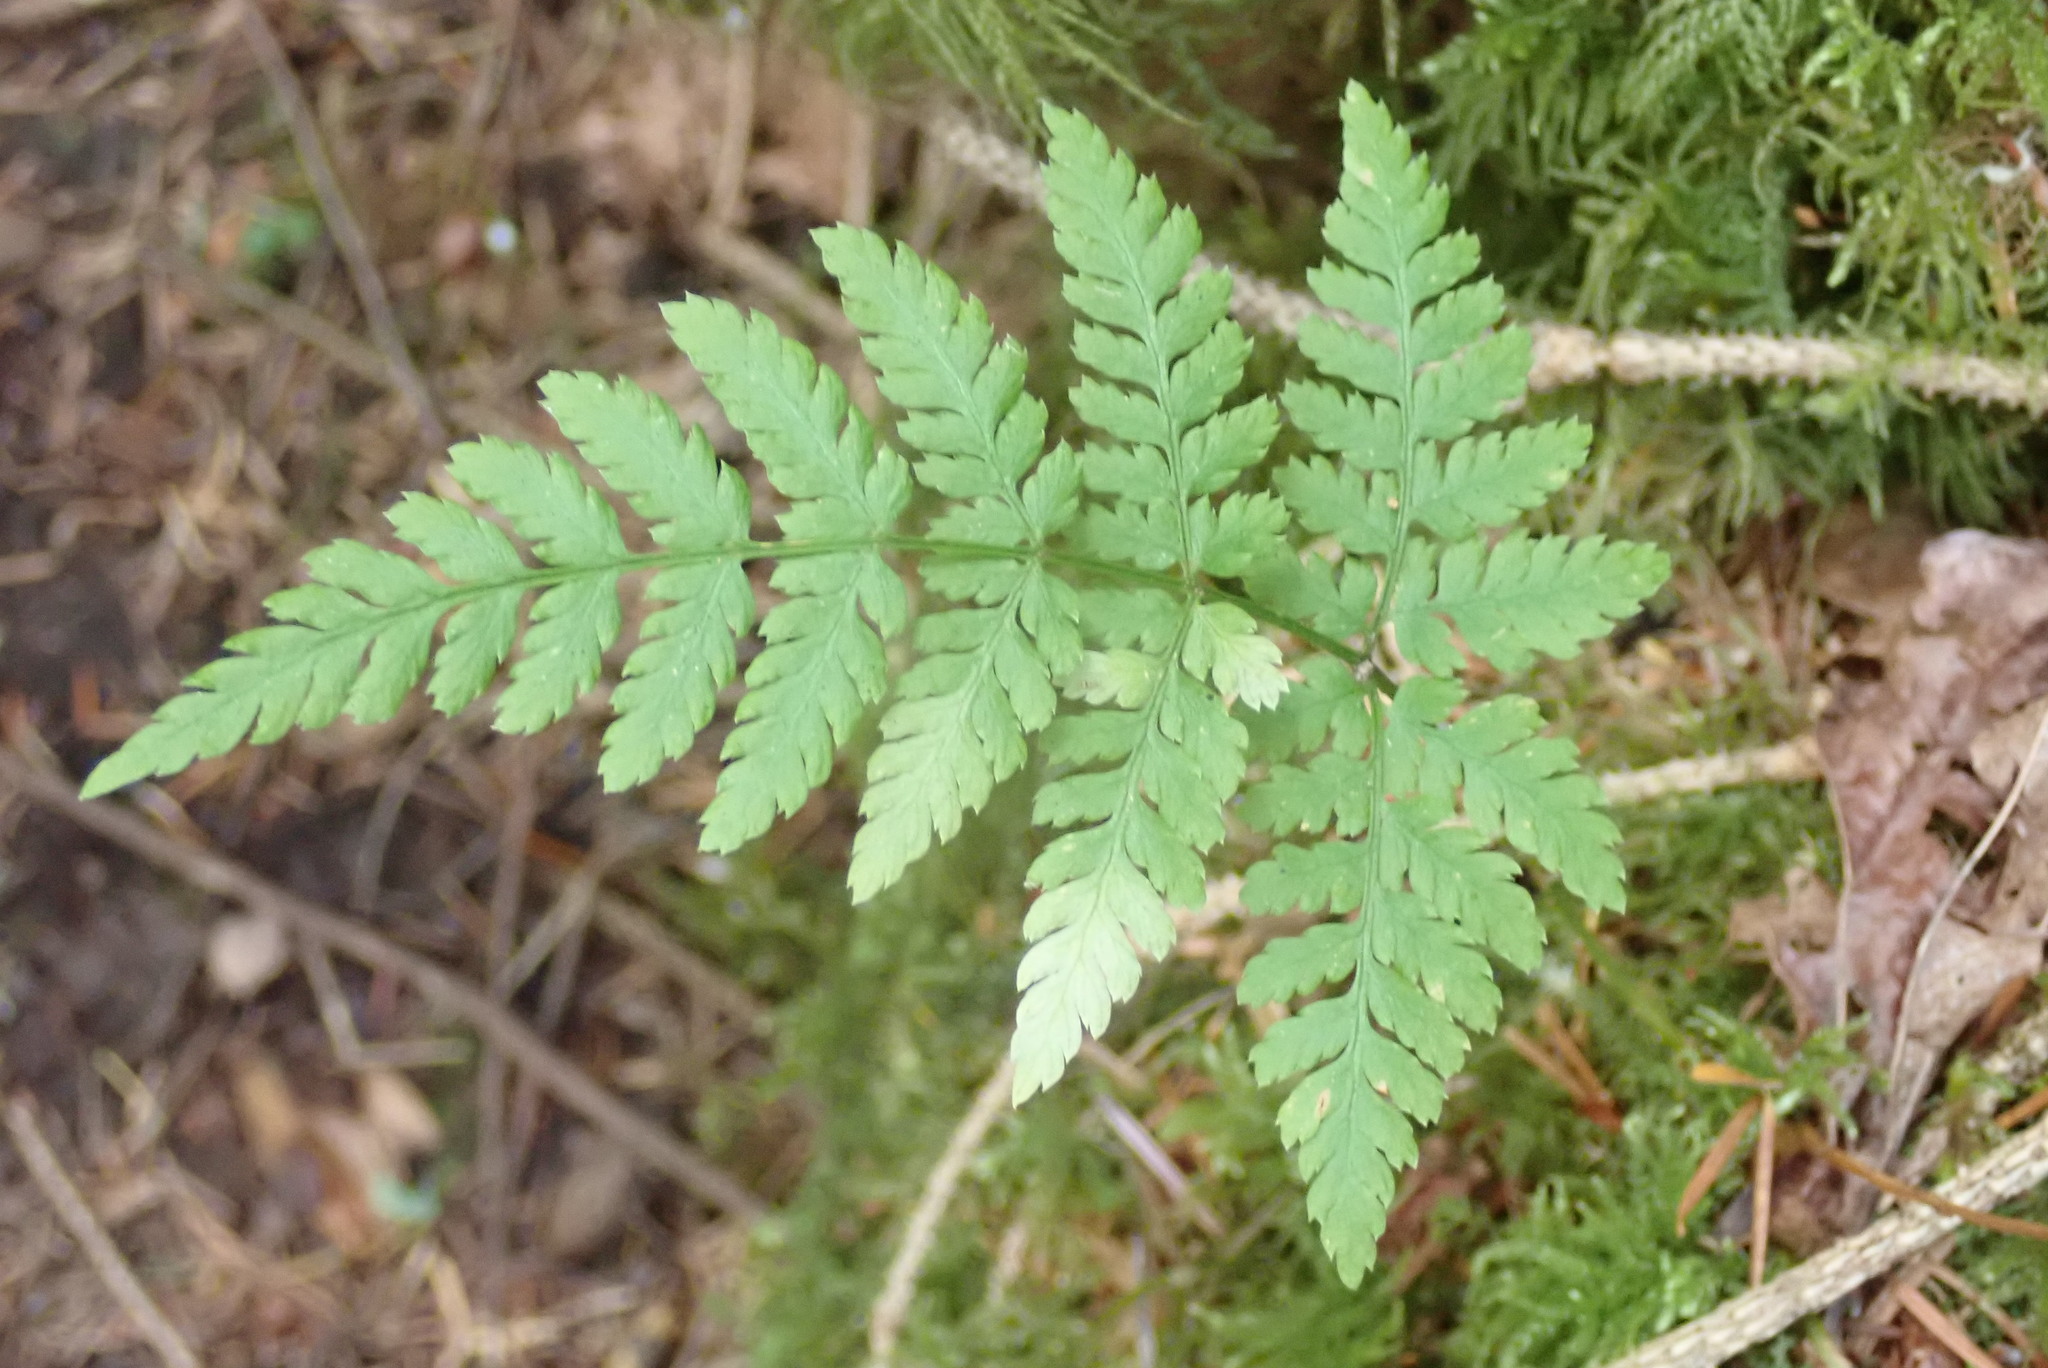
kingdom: Plantae
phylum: Tracheophyta
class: Polypodiopsida
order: Polypodiales
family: Dryopteridaceae
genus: Dryopteris
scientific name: Dryopteris expansa
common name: Northern buckler fern
